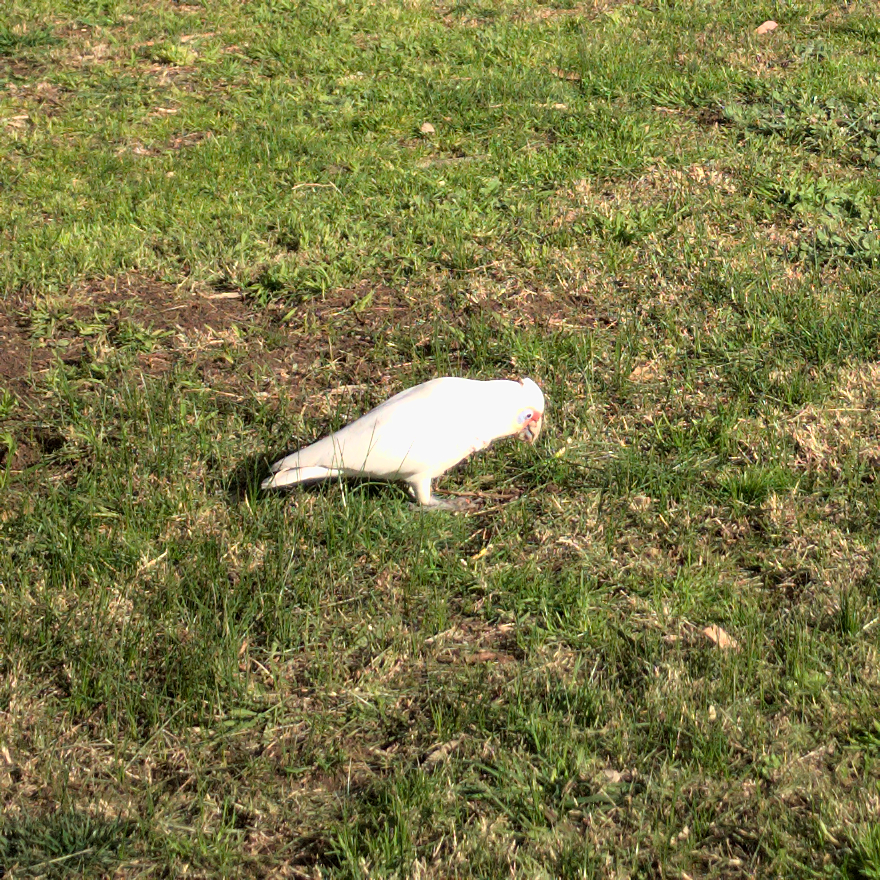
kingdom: Animalia
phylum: Chordata
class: Aves
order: Psittaciformes
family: Psittacidae
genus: Cacatua
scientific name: Cacatua tenuirostris
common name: Long-billed corella
